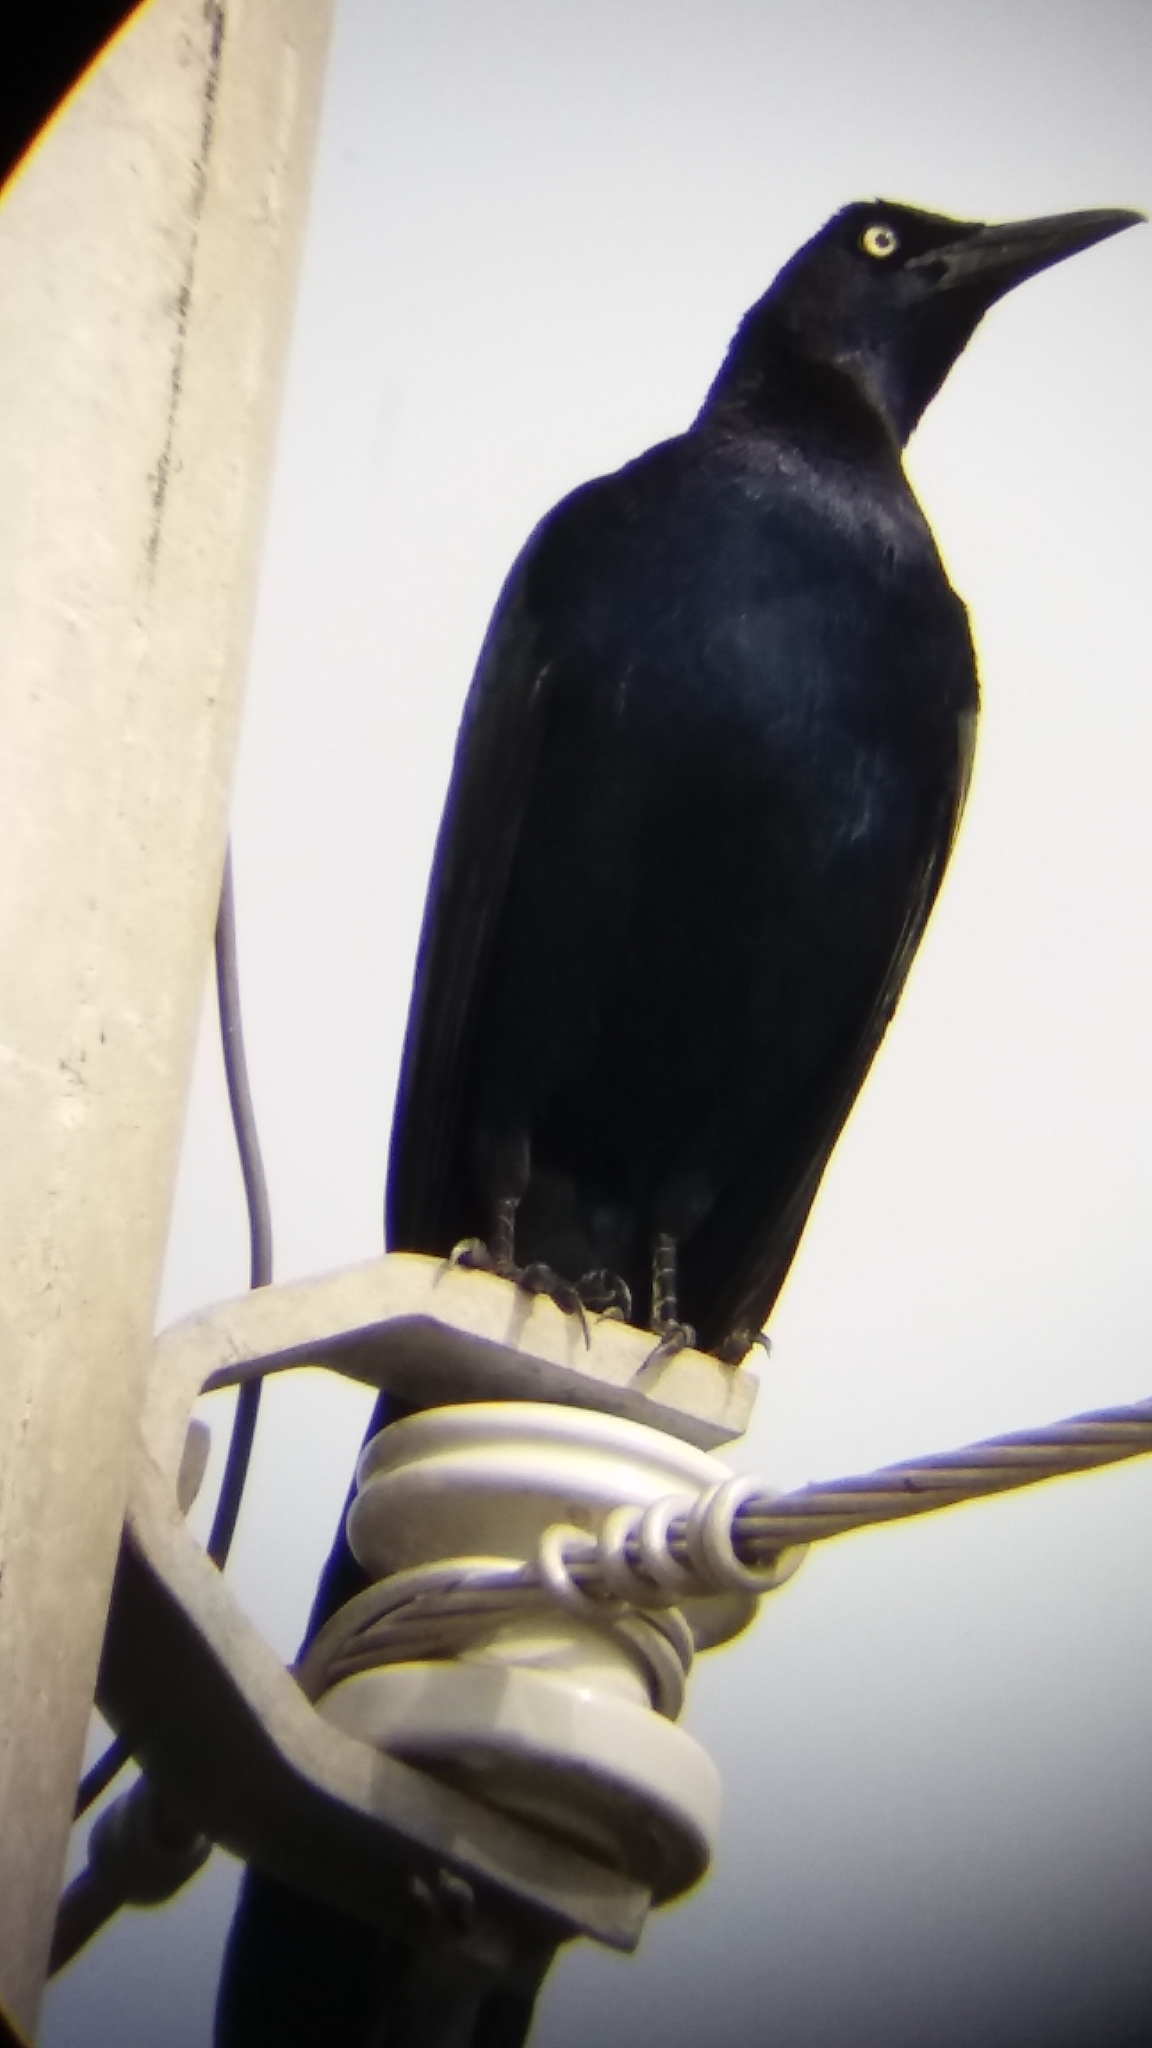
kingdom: Animalia
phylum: Chordata
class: Aves
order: Passeriformes
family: Icteridae
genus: Quiscalus
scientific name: Quiscalus mexicanus
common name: Great-tailed grackle
